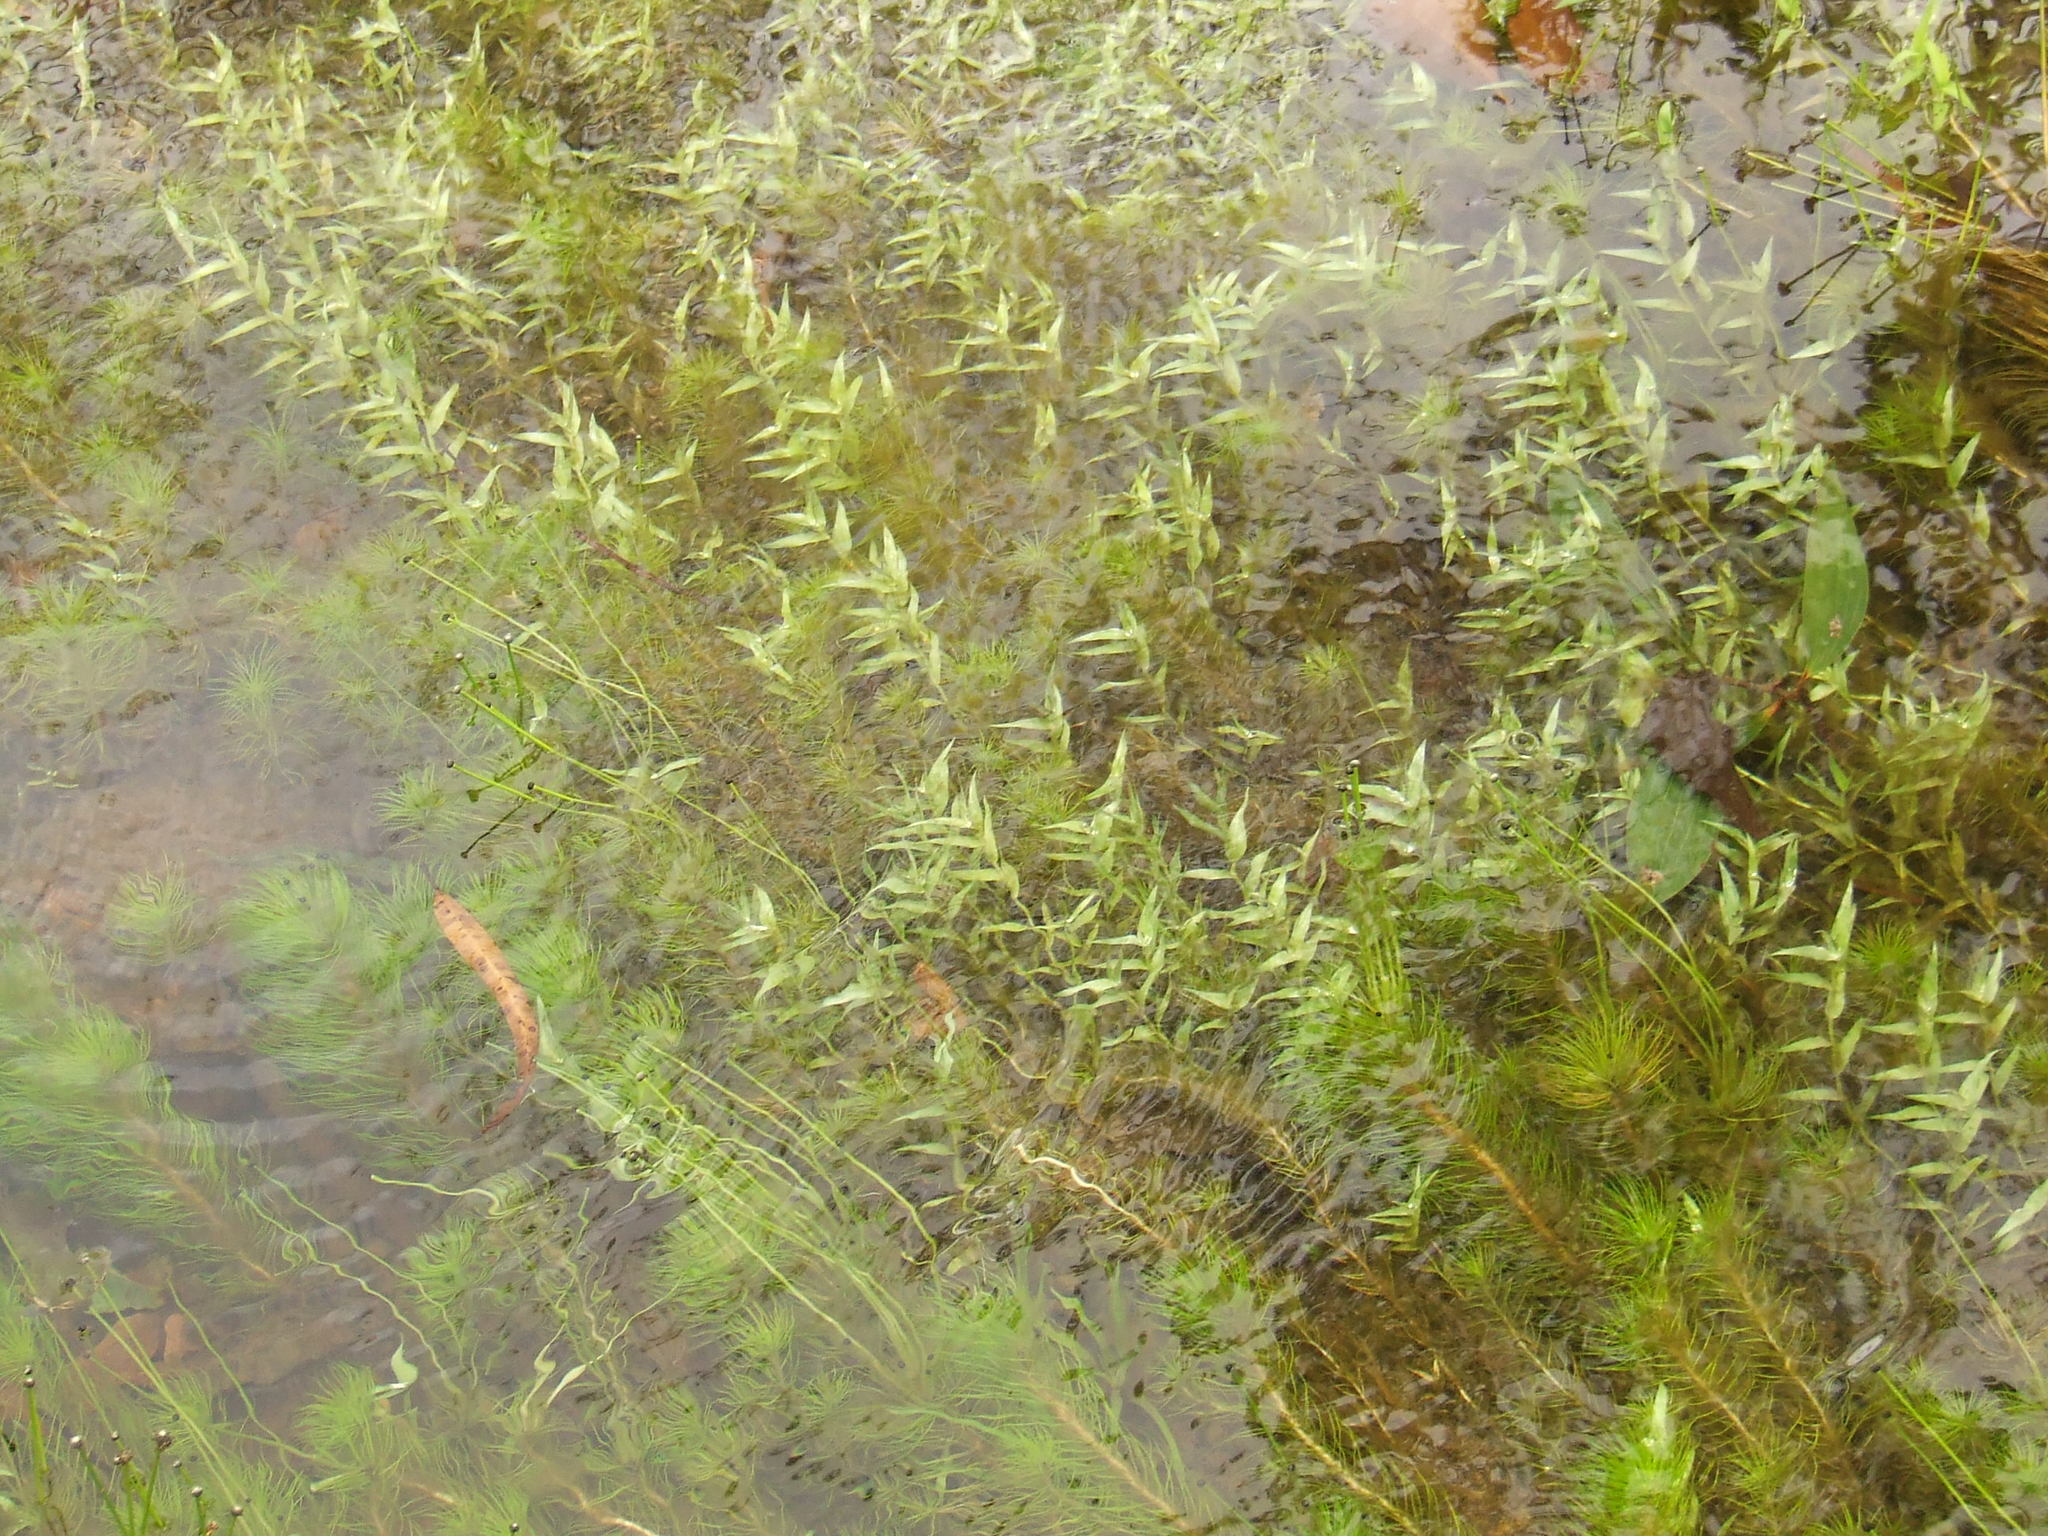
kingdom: Plantae
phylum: Tracheophyta
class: Liliopsida
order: Poales
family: Poaceae
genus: Coelachne
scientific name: Coelachne pulchella
